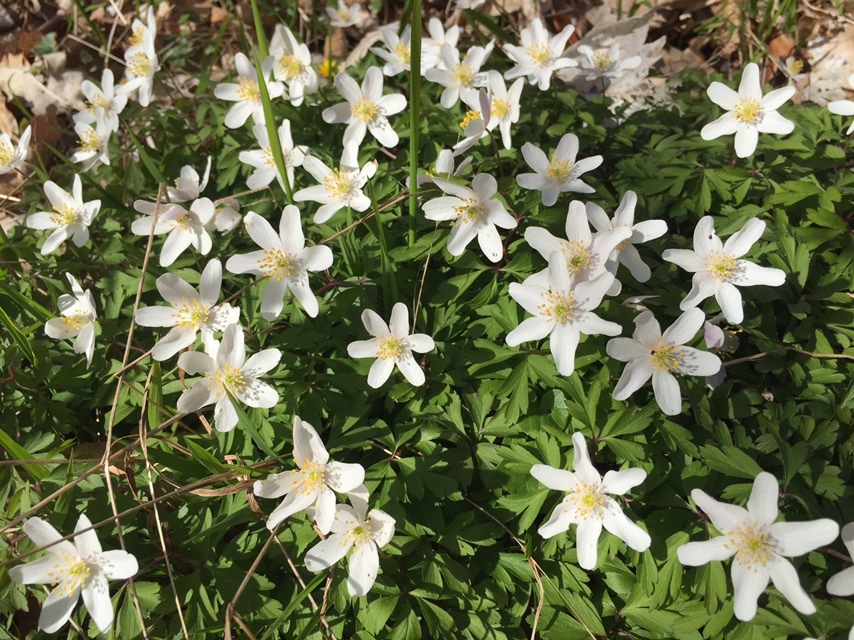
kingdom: Plantae
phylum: Tracheophyta
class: Magnoliopsida
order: Ranunculales
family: Ranunculaceae
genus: Anemone
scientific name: Anemone nemorosa
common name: Wood anemone
